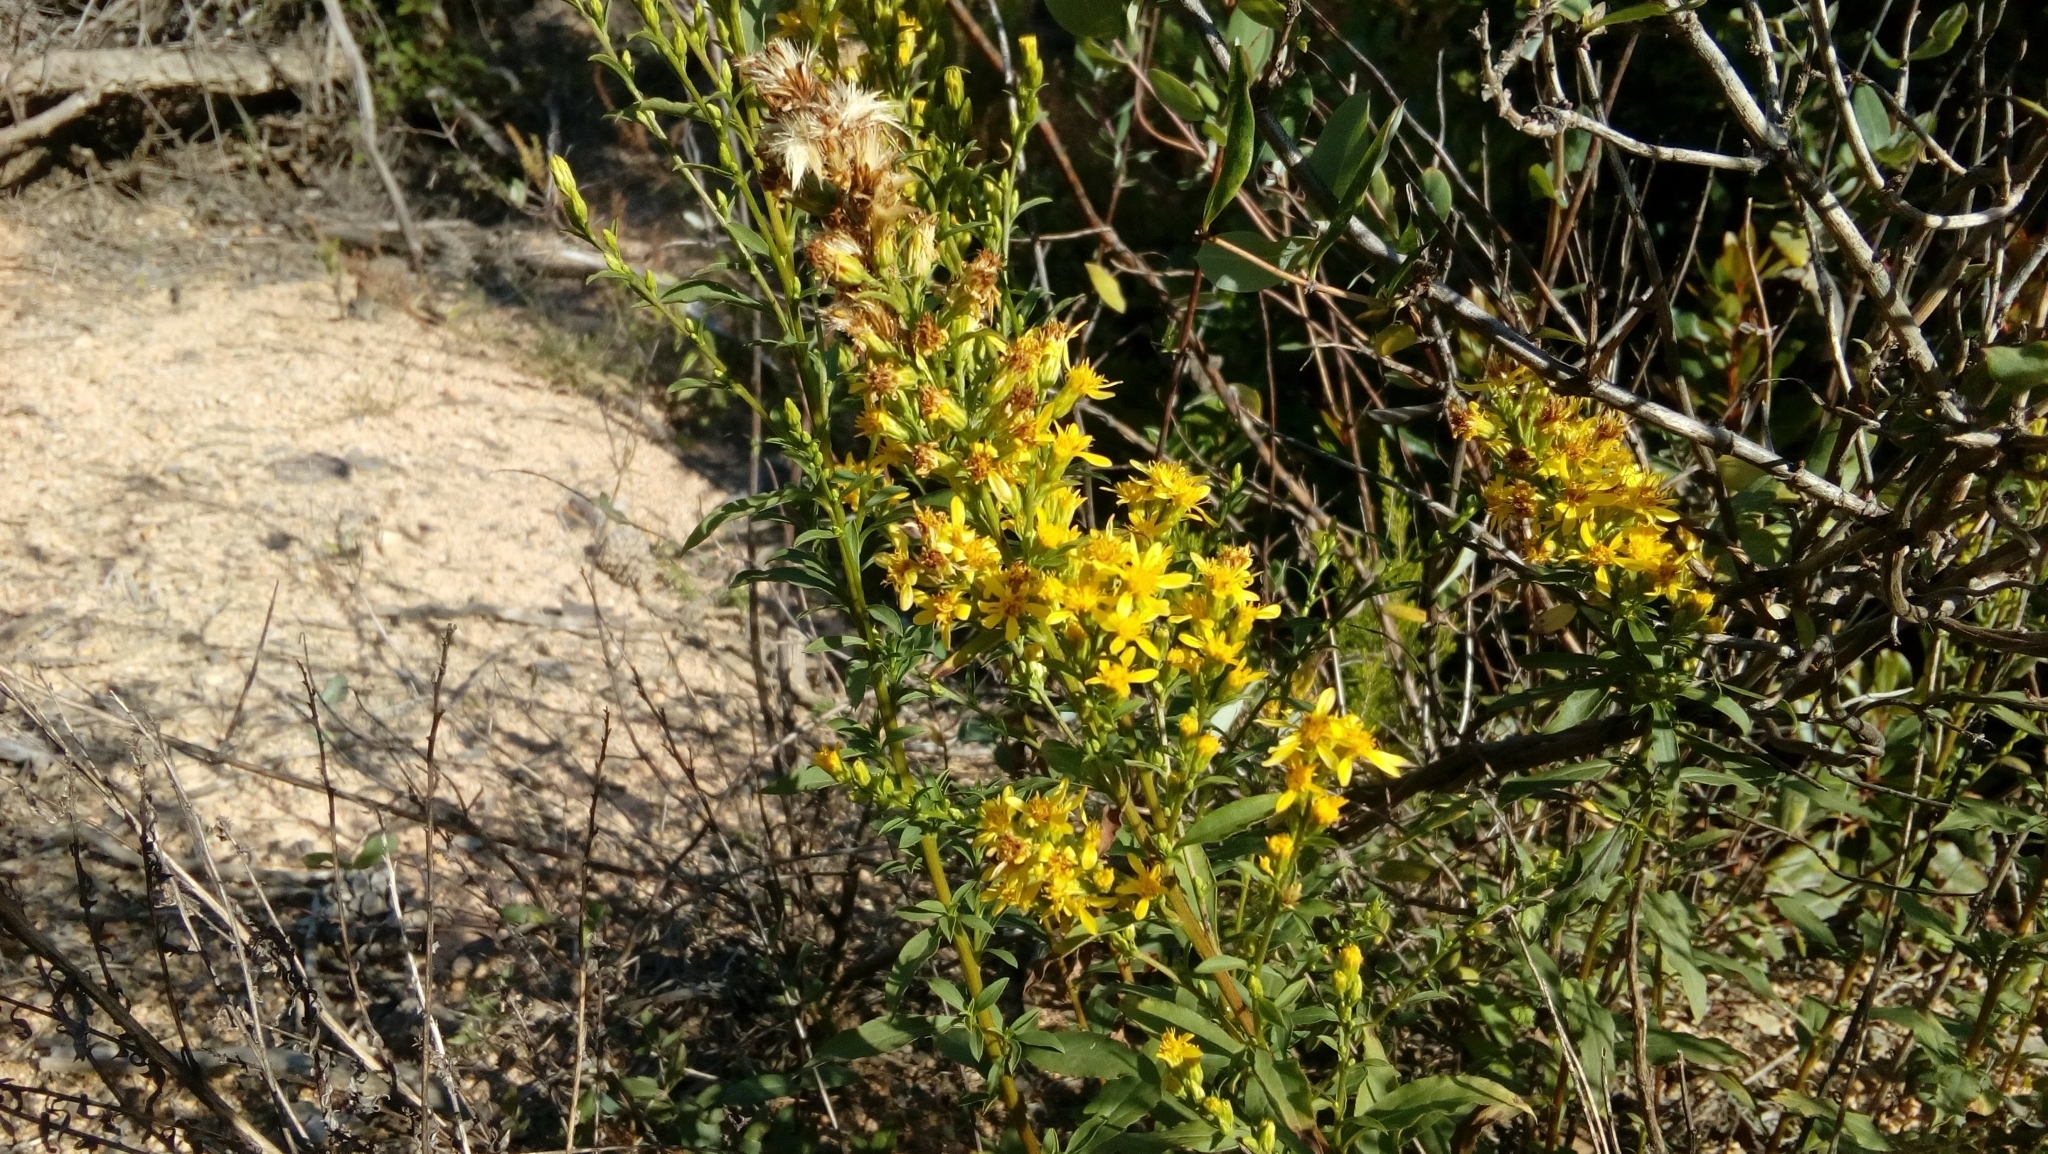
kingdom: Plantae
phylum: Tracheophyta
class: Magnoliopsida
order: Asterales
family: Asteraceae
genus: Solidago
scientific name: Solidago virgaurea
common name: Goldenrod
